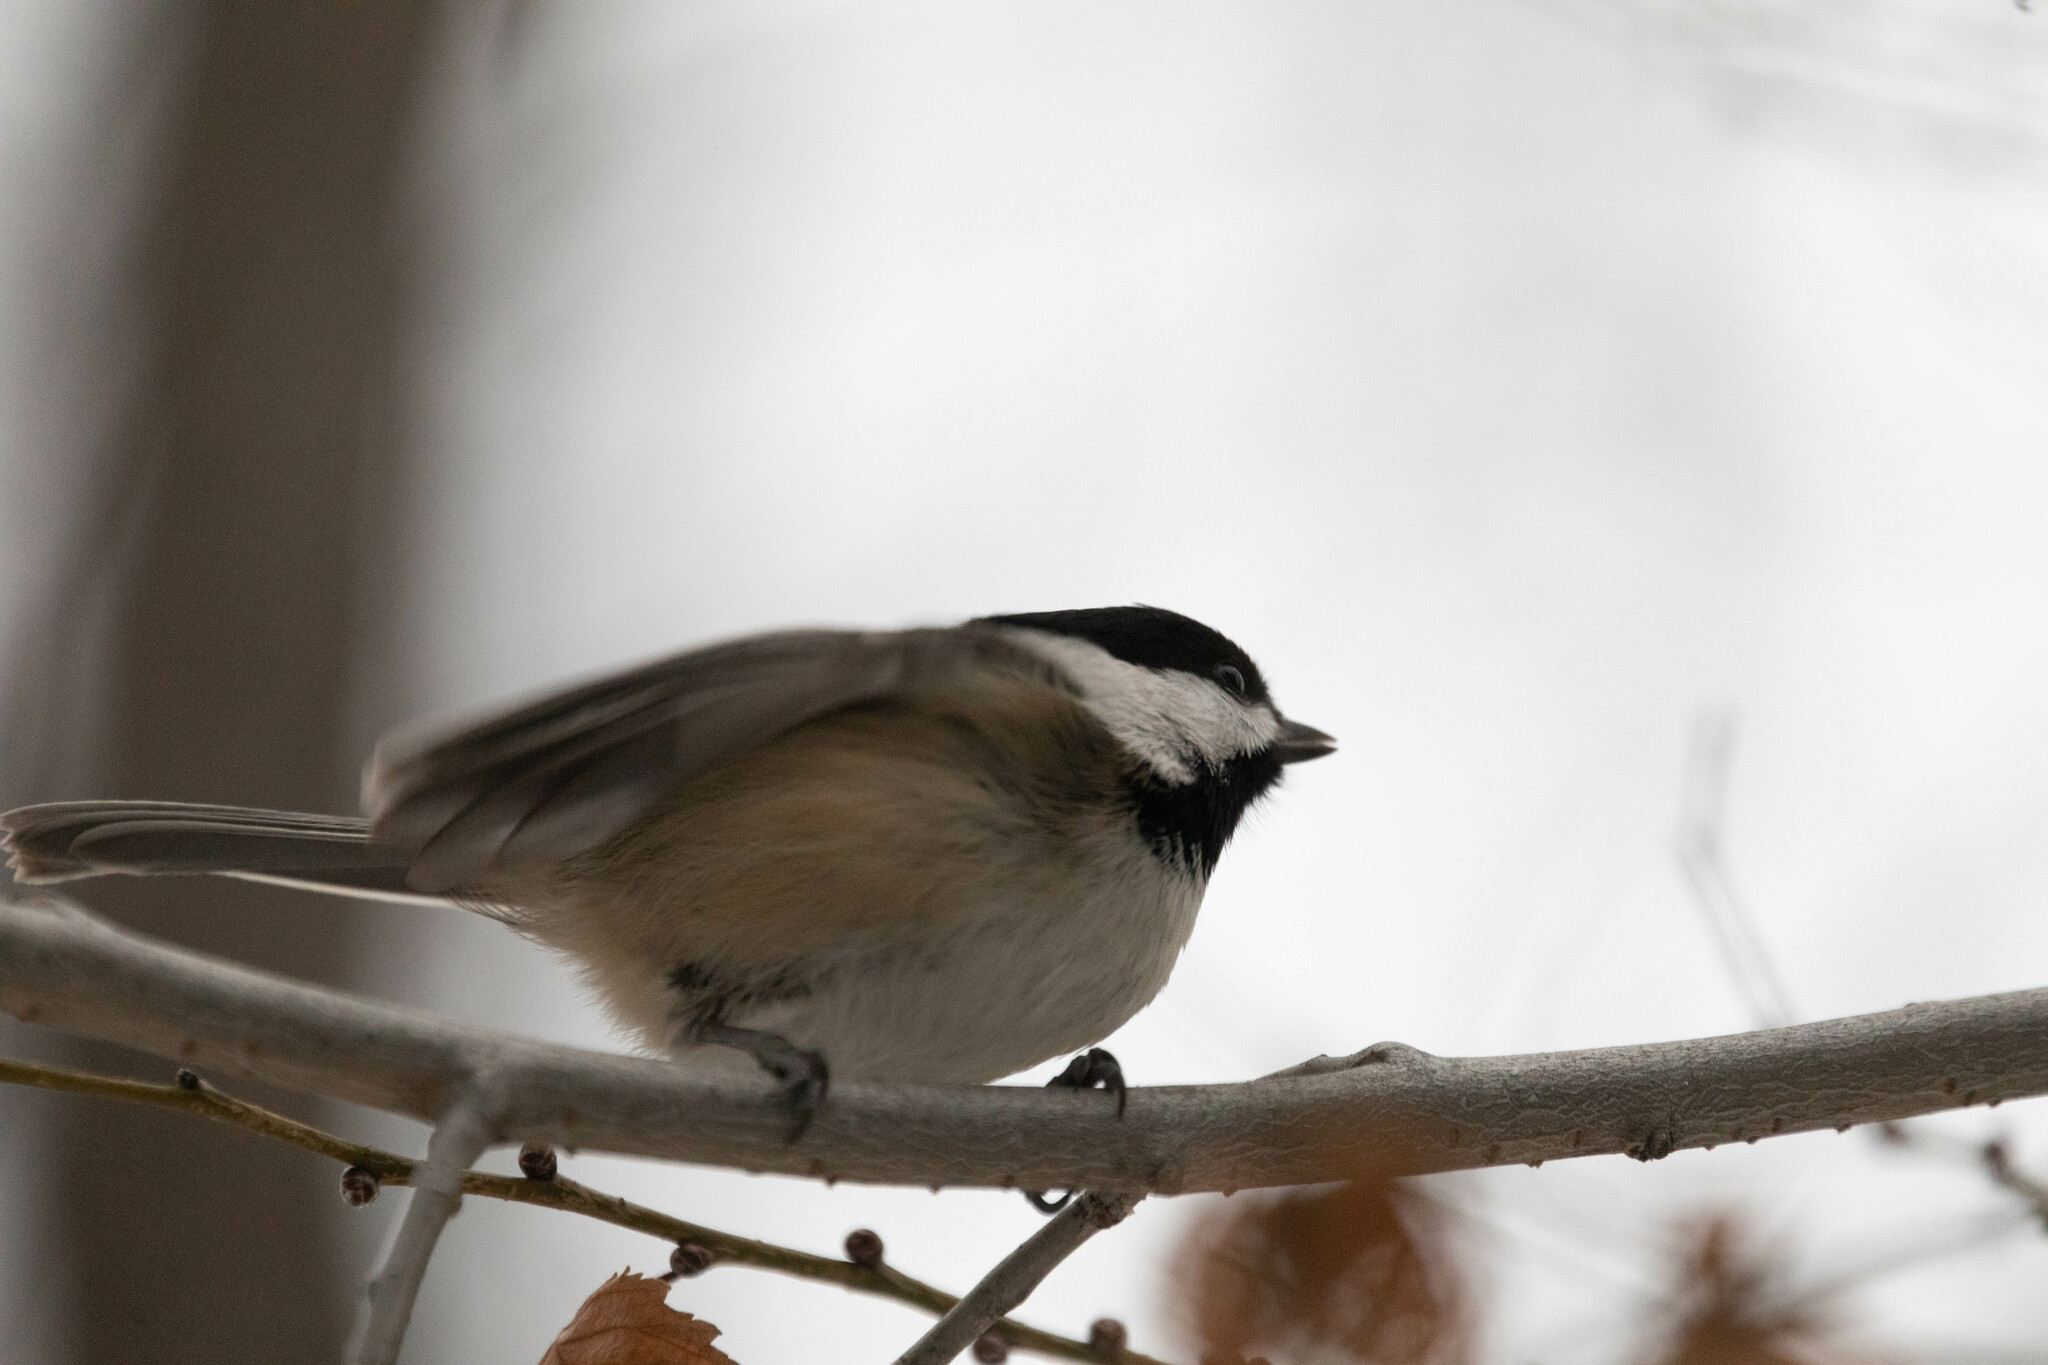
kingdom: Animalia
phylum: Chordata
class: Aves
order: Passeriformes
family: Paridae
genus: Poecile
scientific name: Poecile atricapillus
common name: Black-capped chickadee
